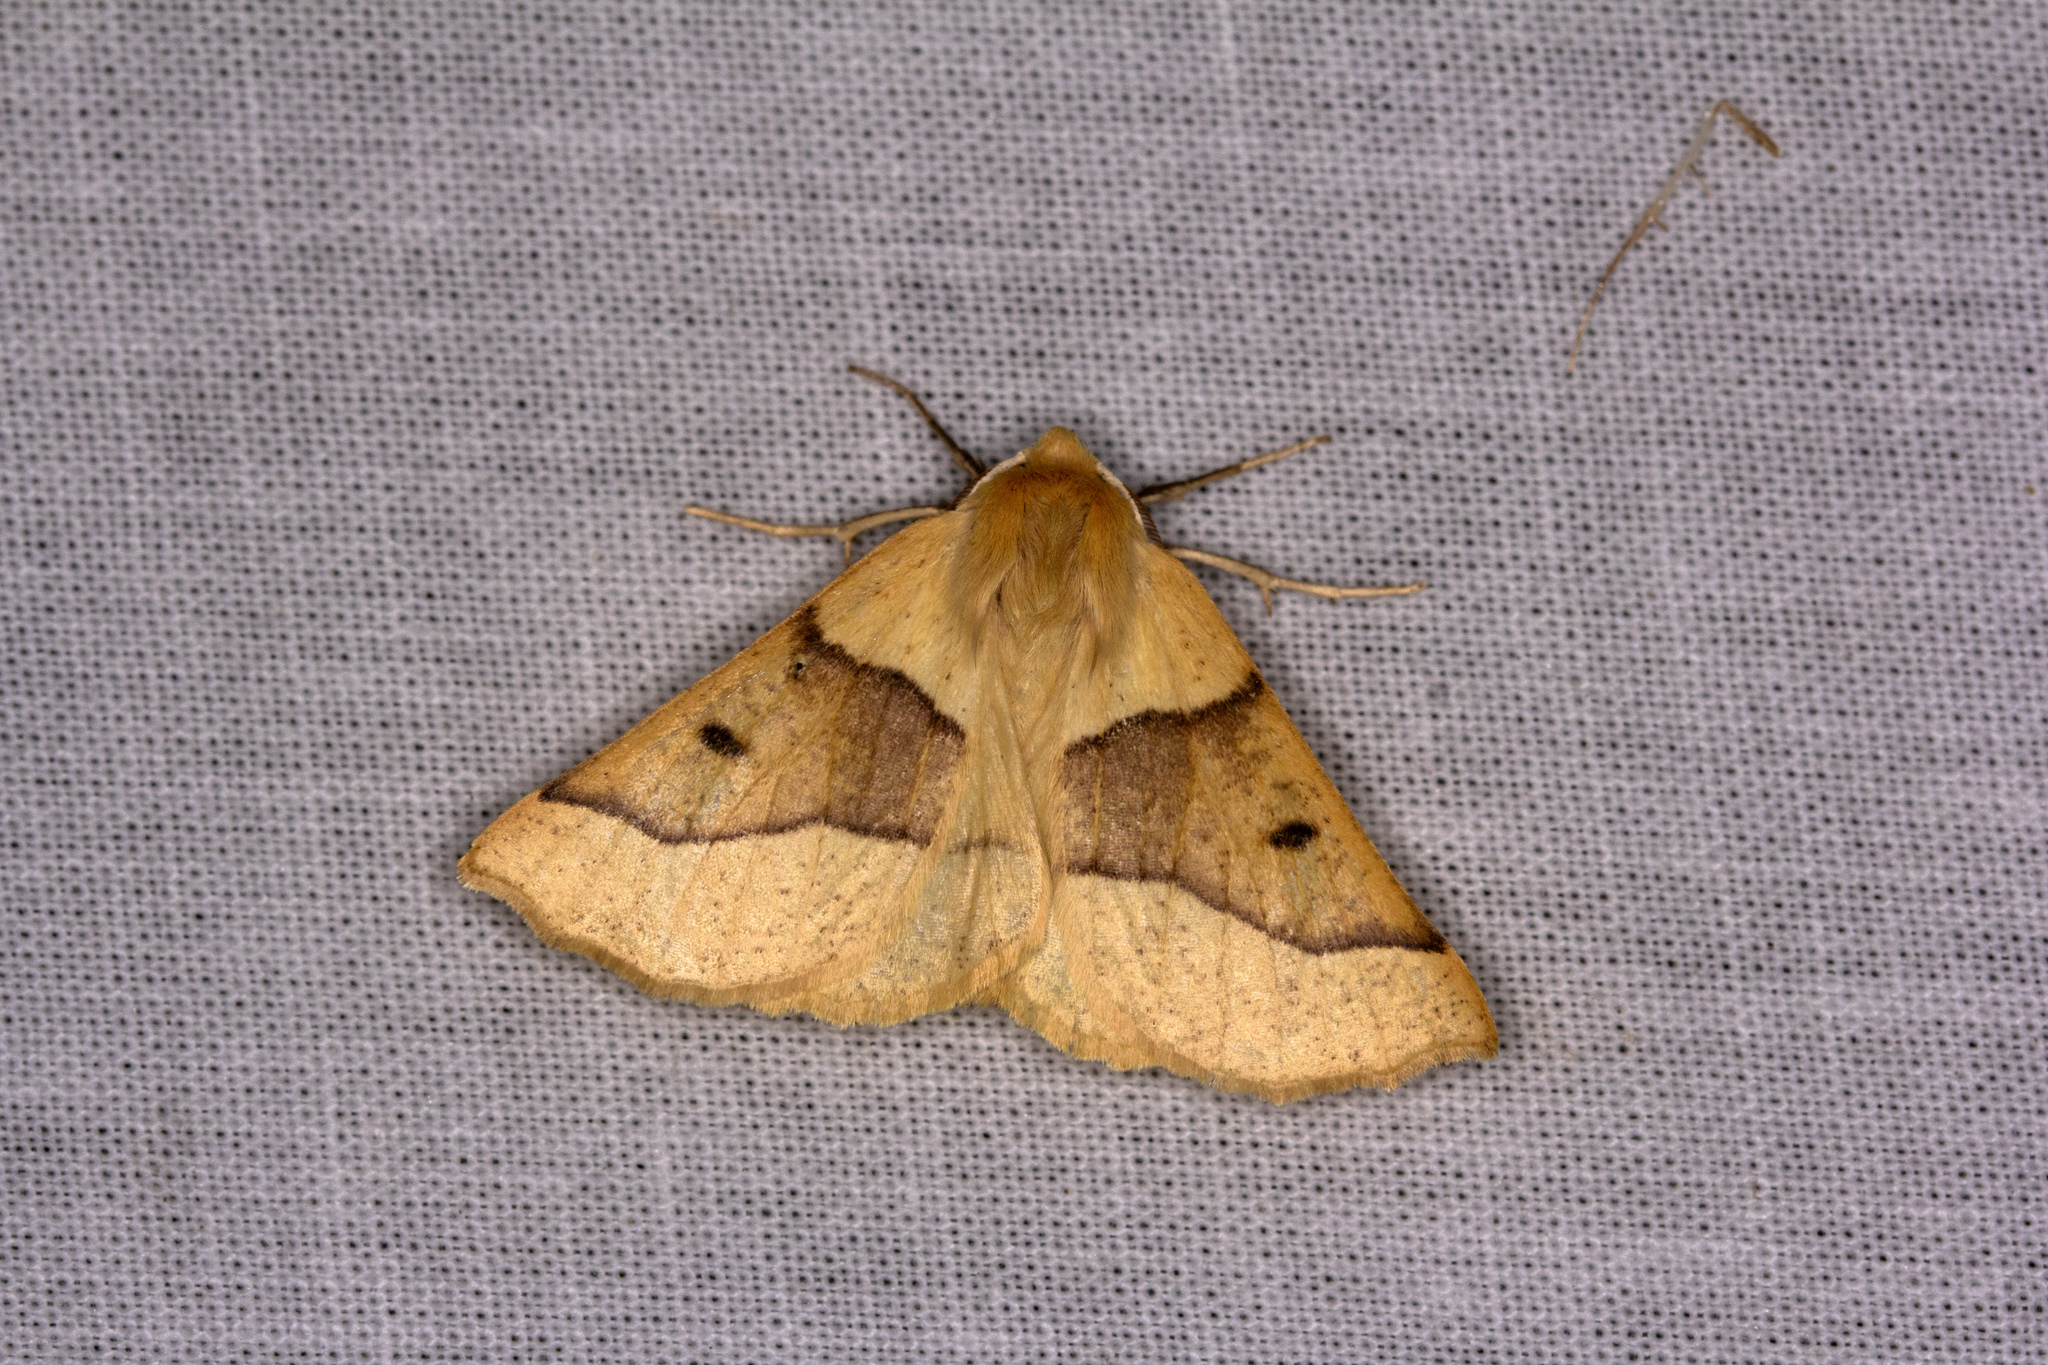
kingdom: Animalia
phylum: Arthropoda
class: Insecta
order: Lepidoptera
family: Geometridae
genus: Crocallis
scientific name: Crocallis elinguaria
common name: Scalloped oak
